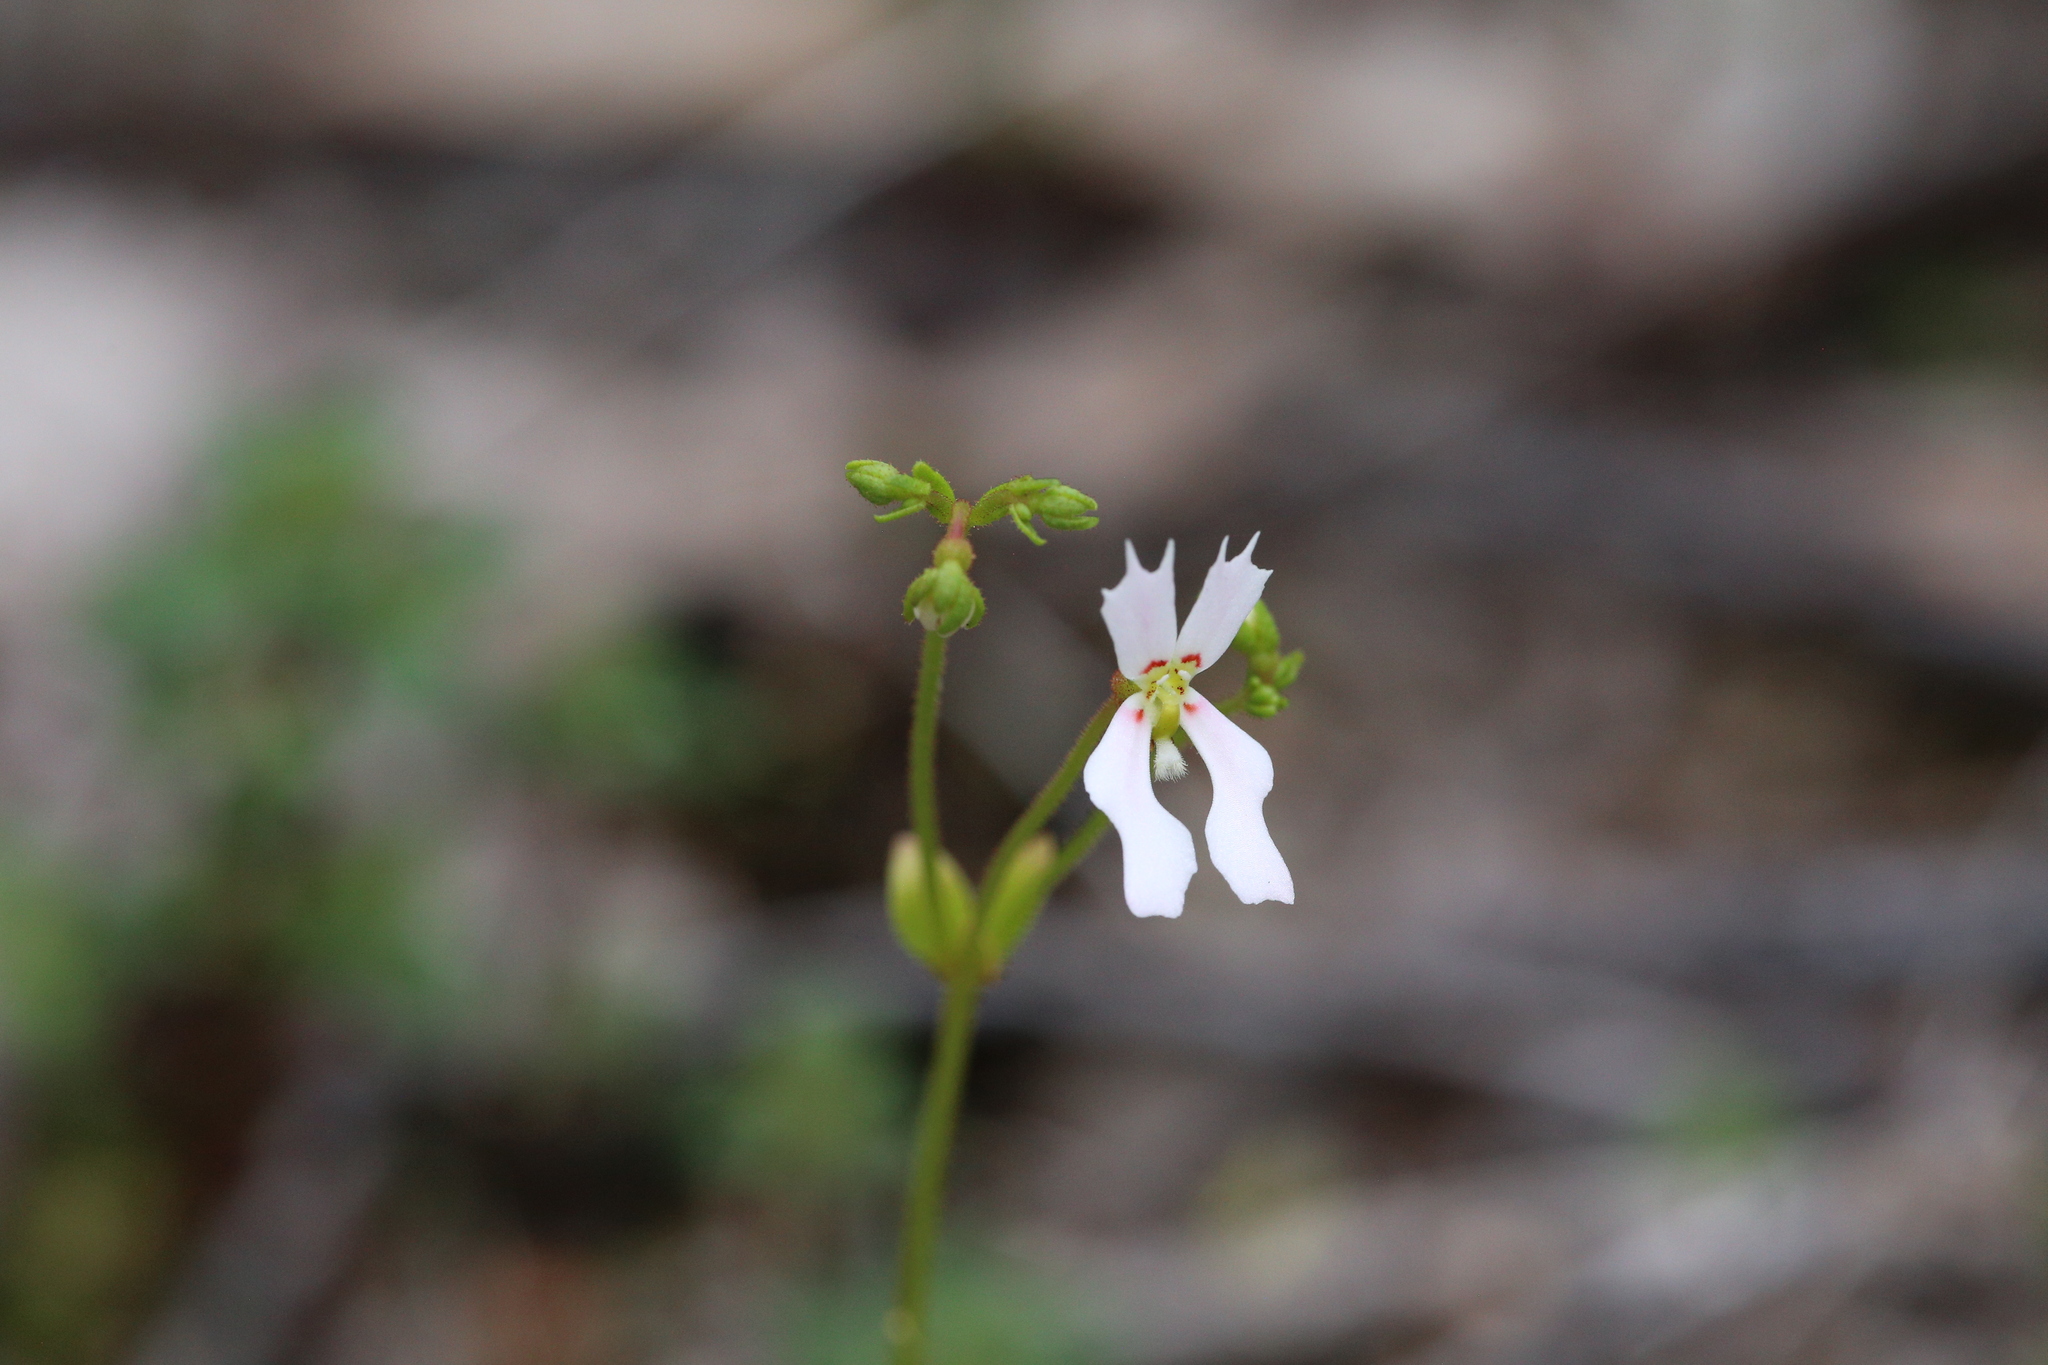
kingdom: Plantae
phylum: Tracheophyta
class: Magnoliopsida
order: Asterales
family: Stylidiaceae
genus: Stylidium
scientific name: Stylidium androsaceum
